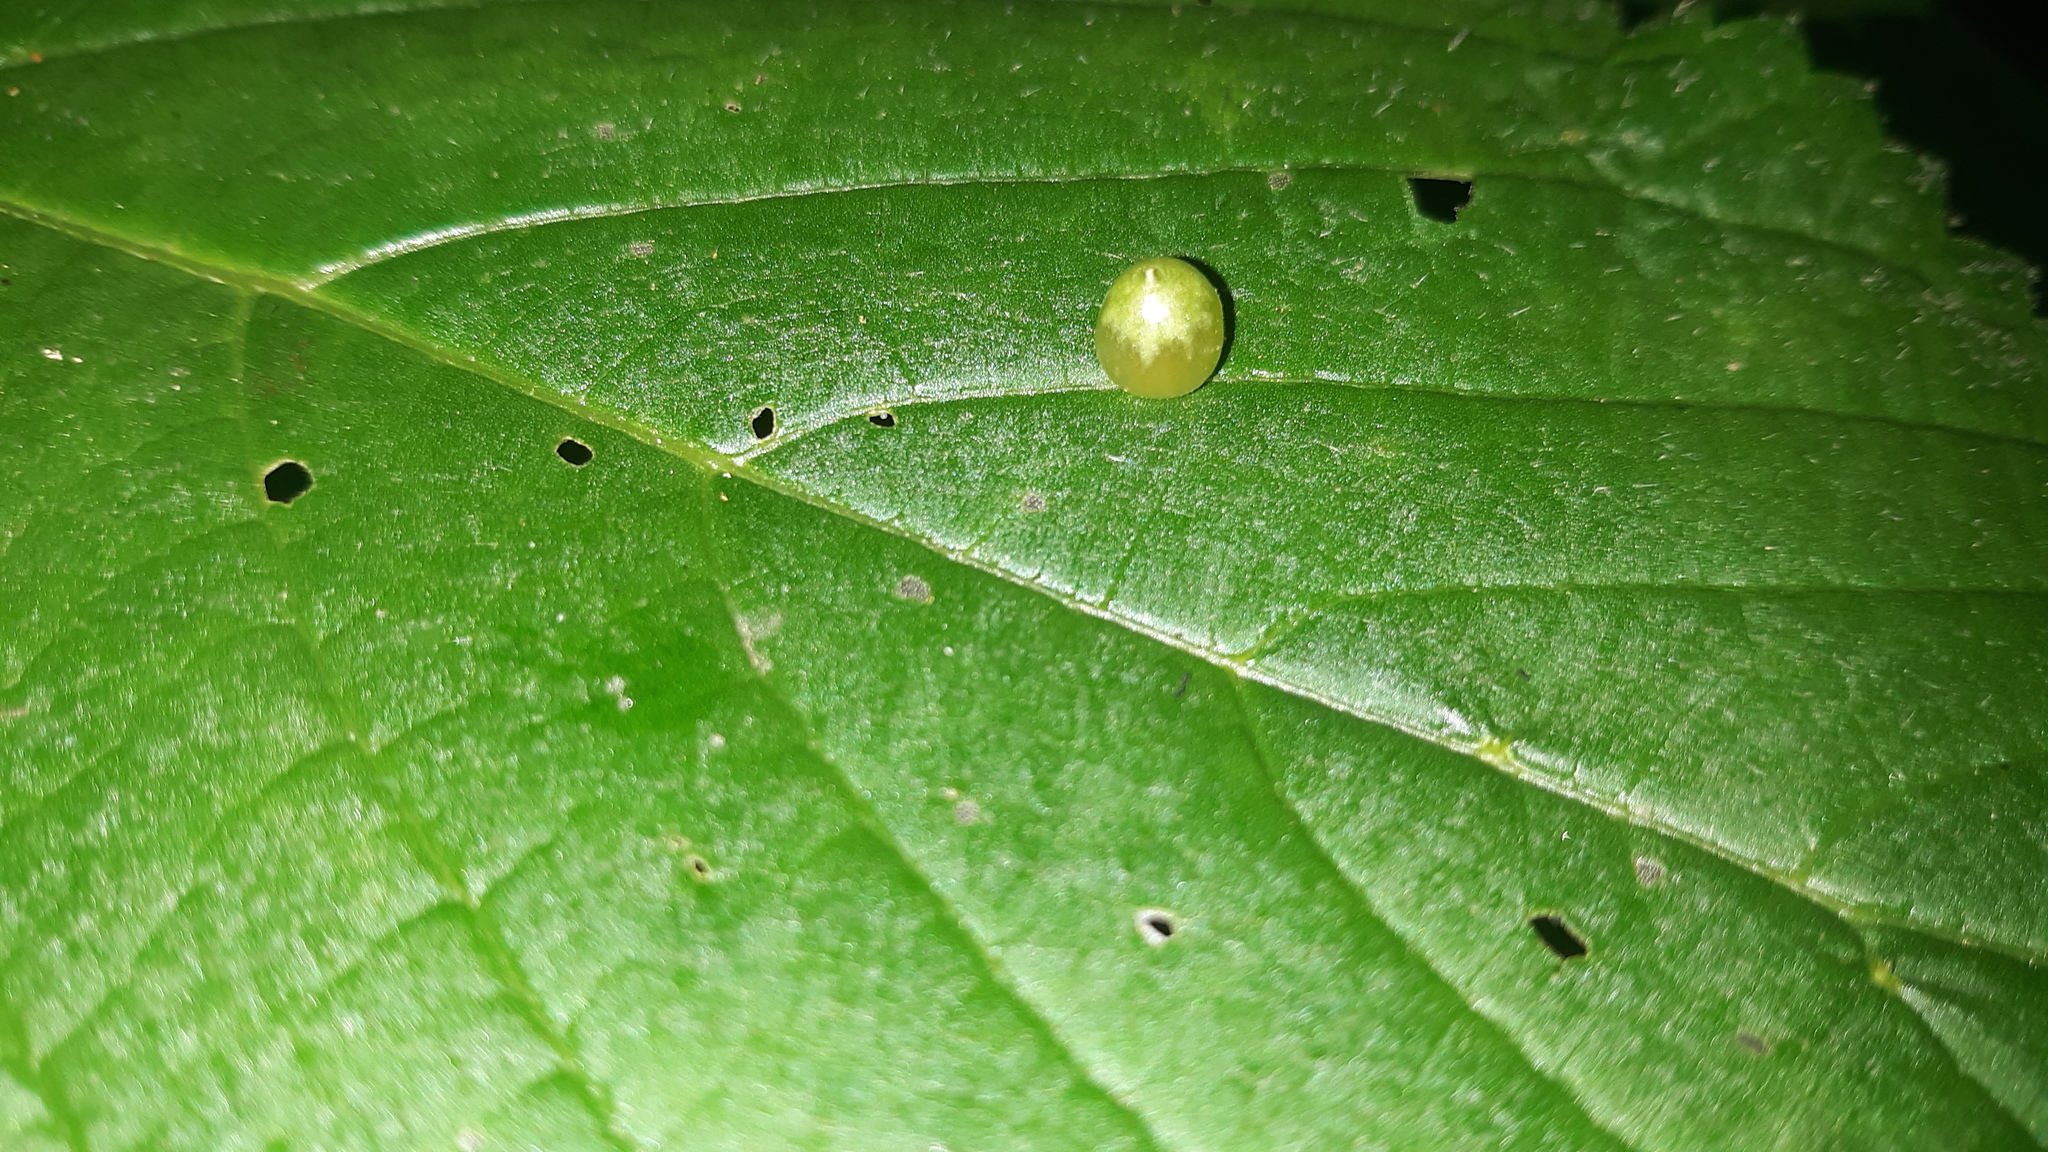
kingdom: Animalia
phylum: Arthropoda
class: Insecta
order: Diptera
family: Cecidomyiidae
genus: Dasineura
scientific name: Dasineura investita
